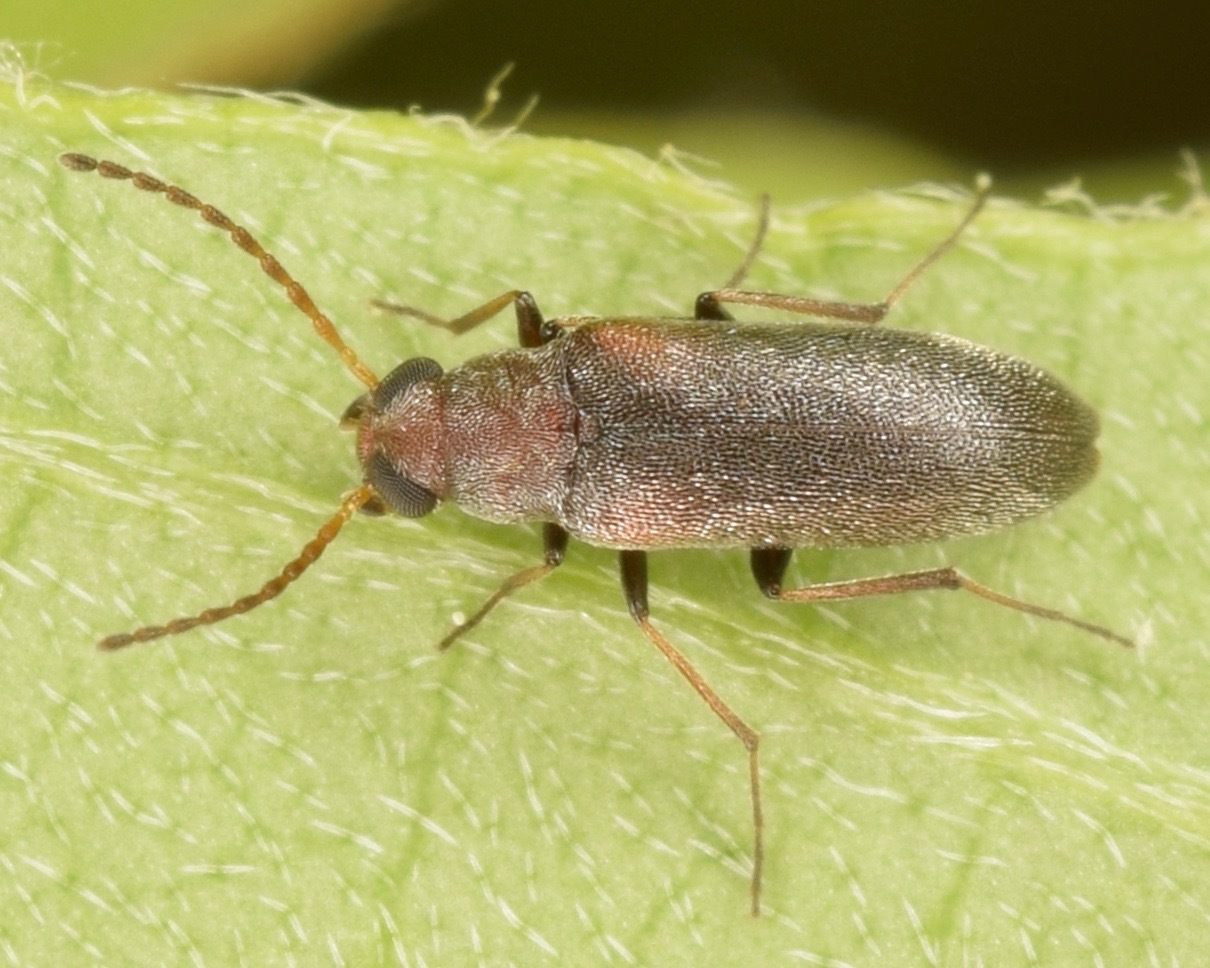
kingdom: Animalia
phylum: Arthropoda
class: Insecta
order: Coleoptera
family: Melandryidae
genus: Microtonus
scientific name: Microtonus sericans
